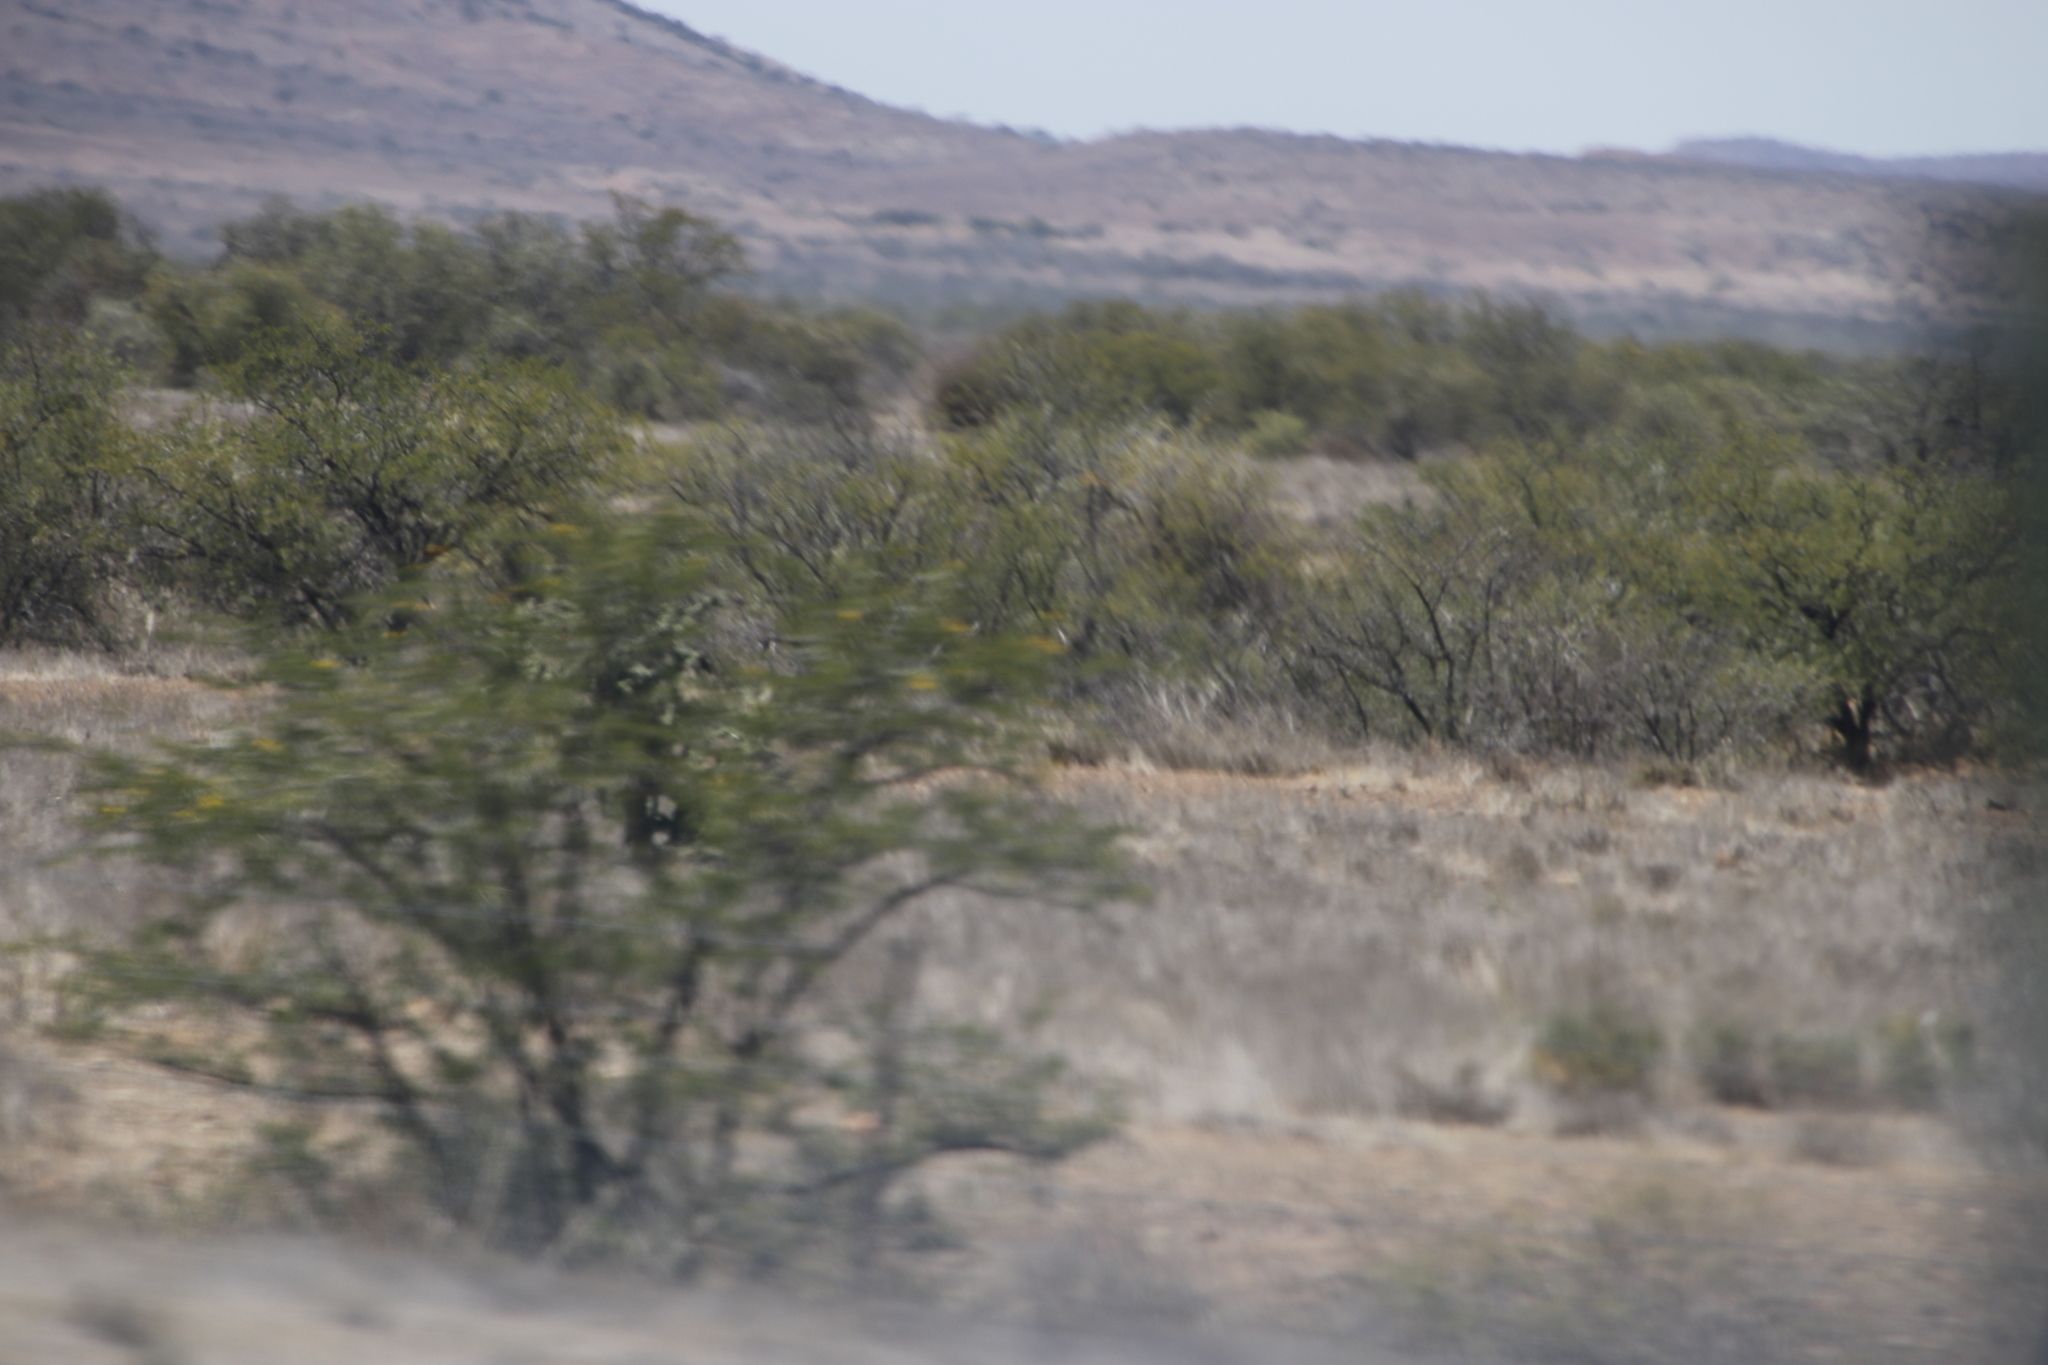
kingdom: Plantae
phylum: Tracheophyta
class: Magnoliopsida
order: Fabales
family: Fabaceae
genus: Vachellia
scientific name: Vachellia karroo
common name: Sweet thorn
